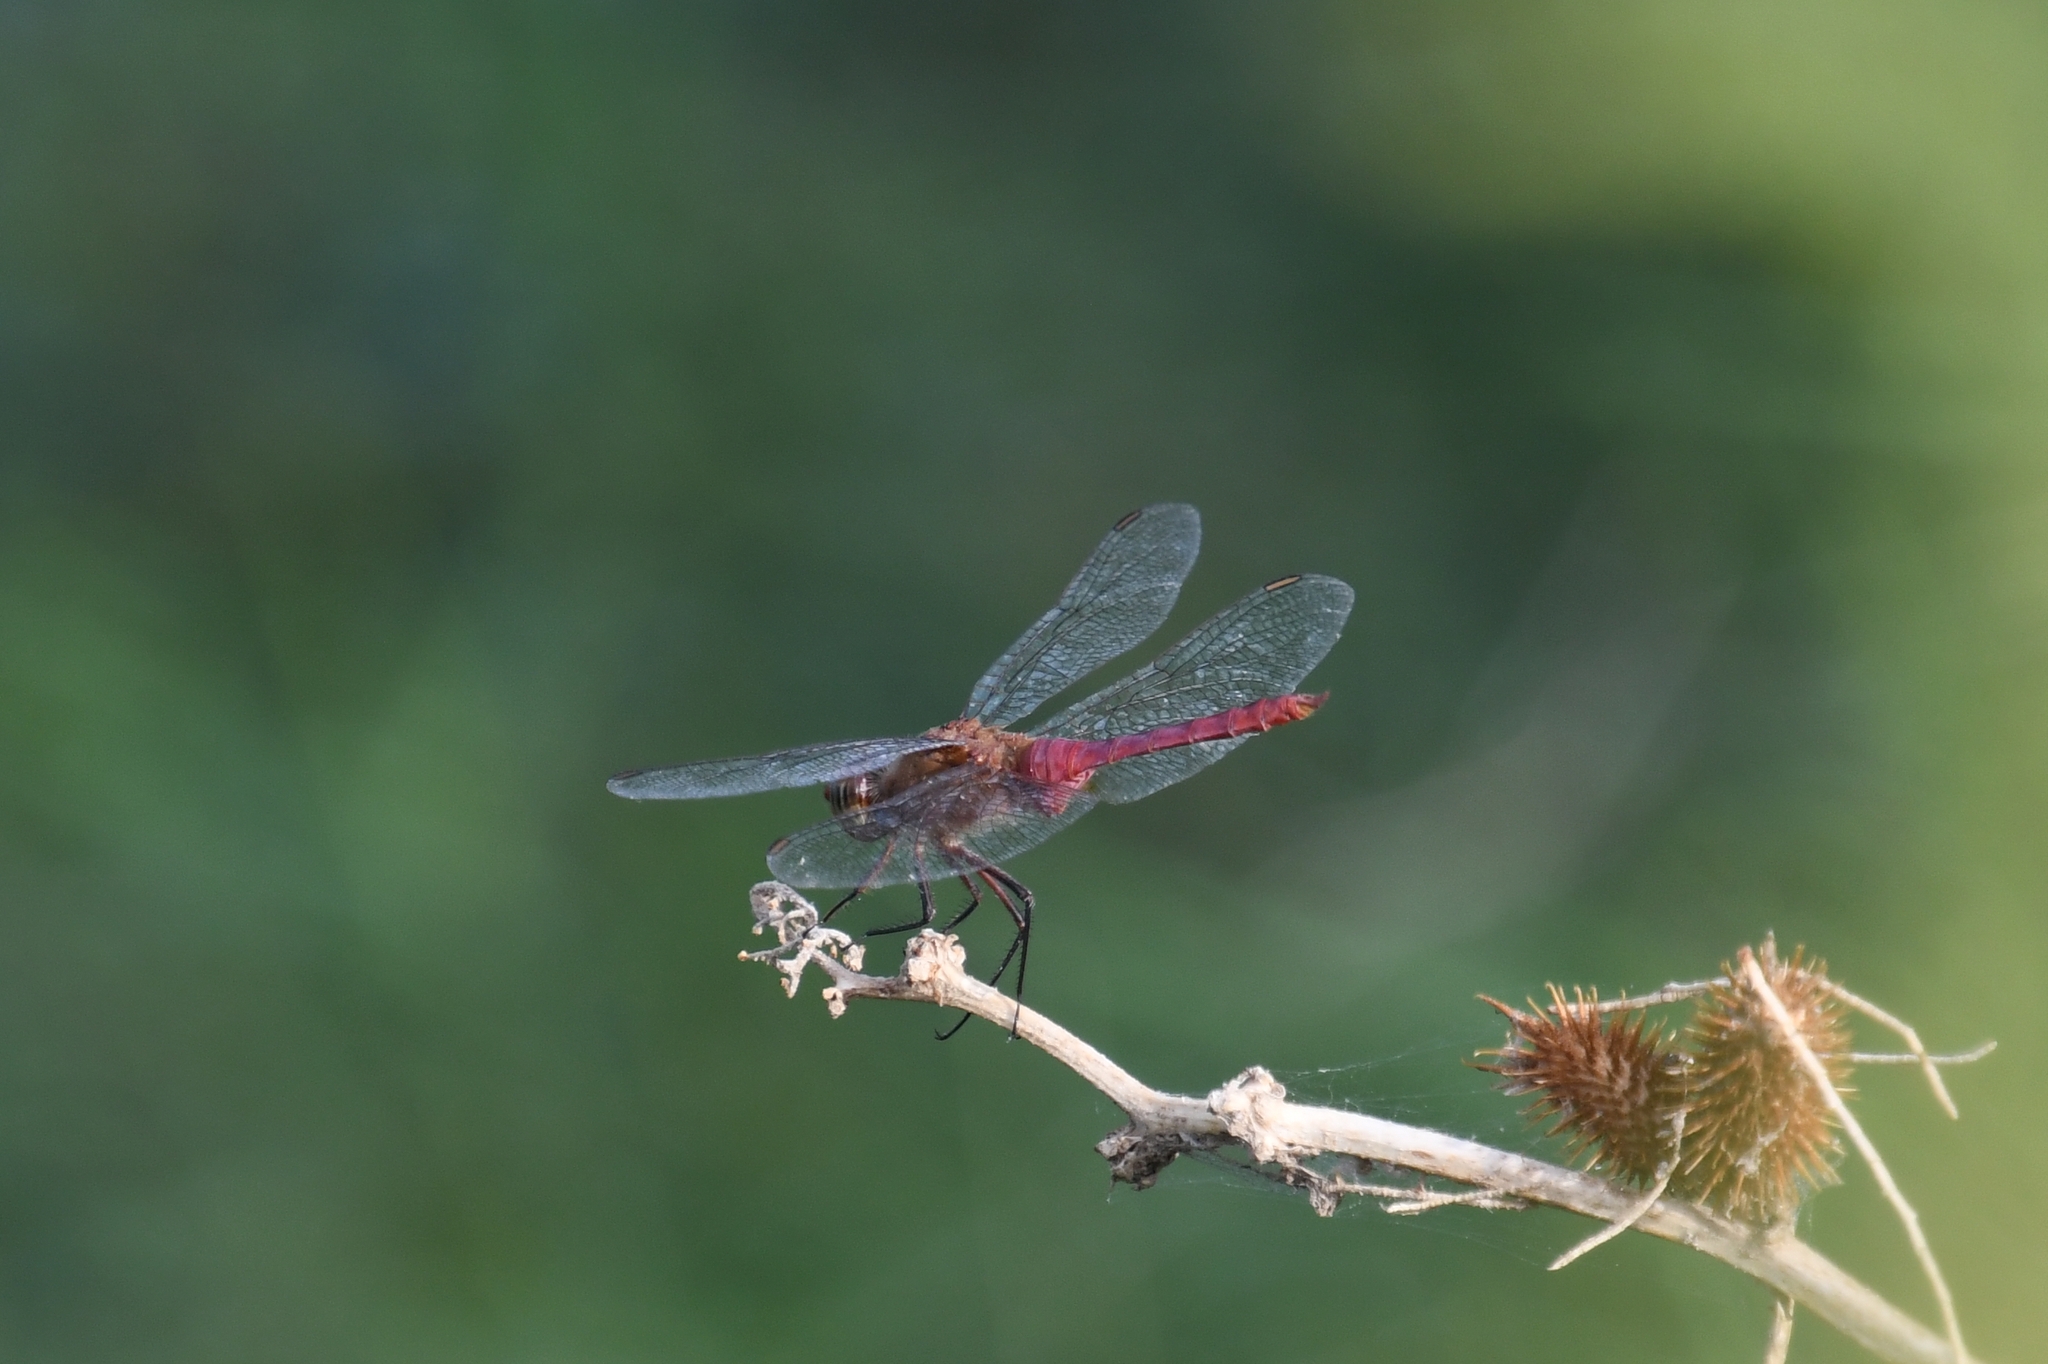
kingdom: Animalia
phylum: Arthropoda
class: Insecta
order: Odonata
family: Libellulidae
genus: Brachymesia
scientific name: Brachymesia furcata
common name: Red-taled pennant
